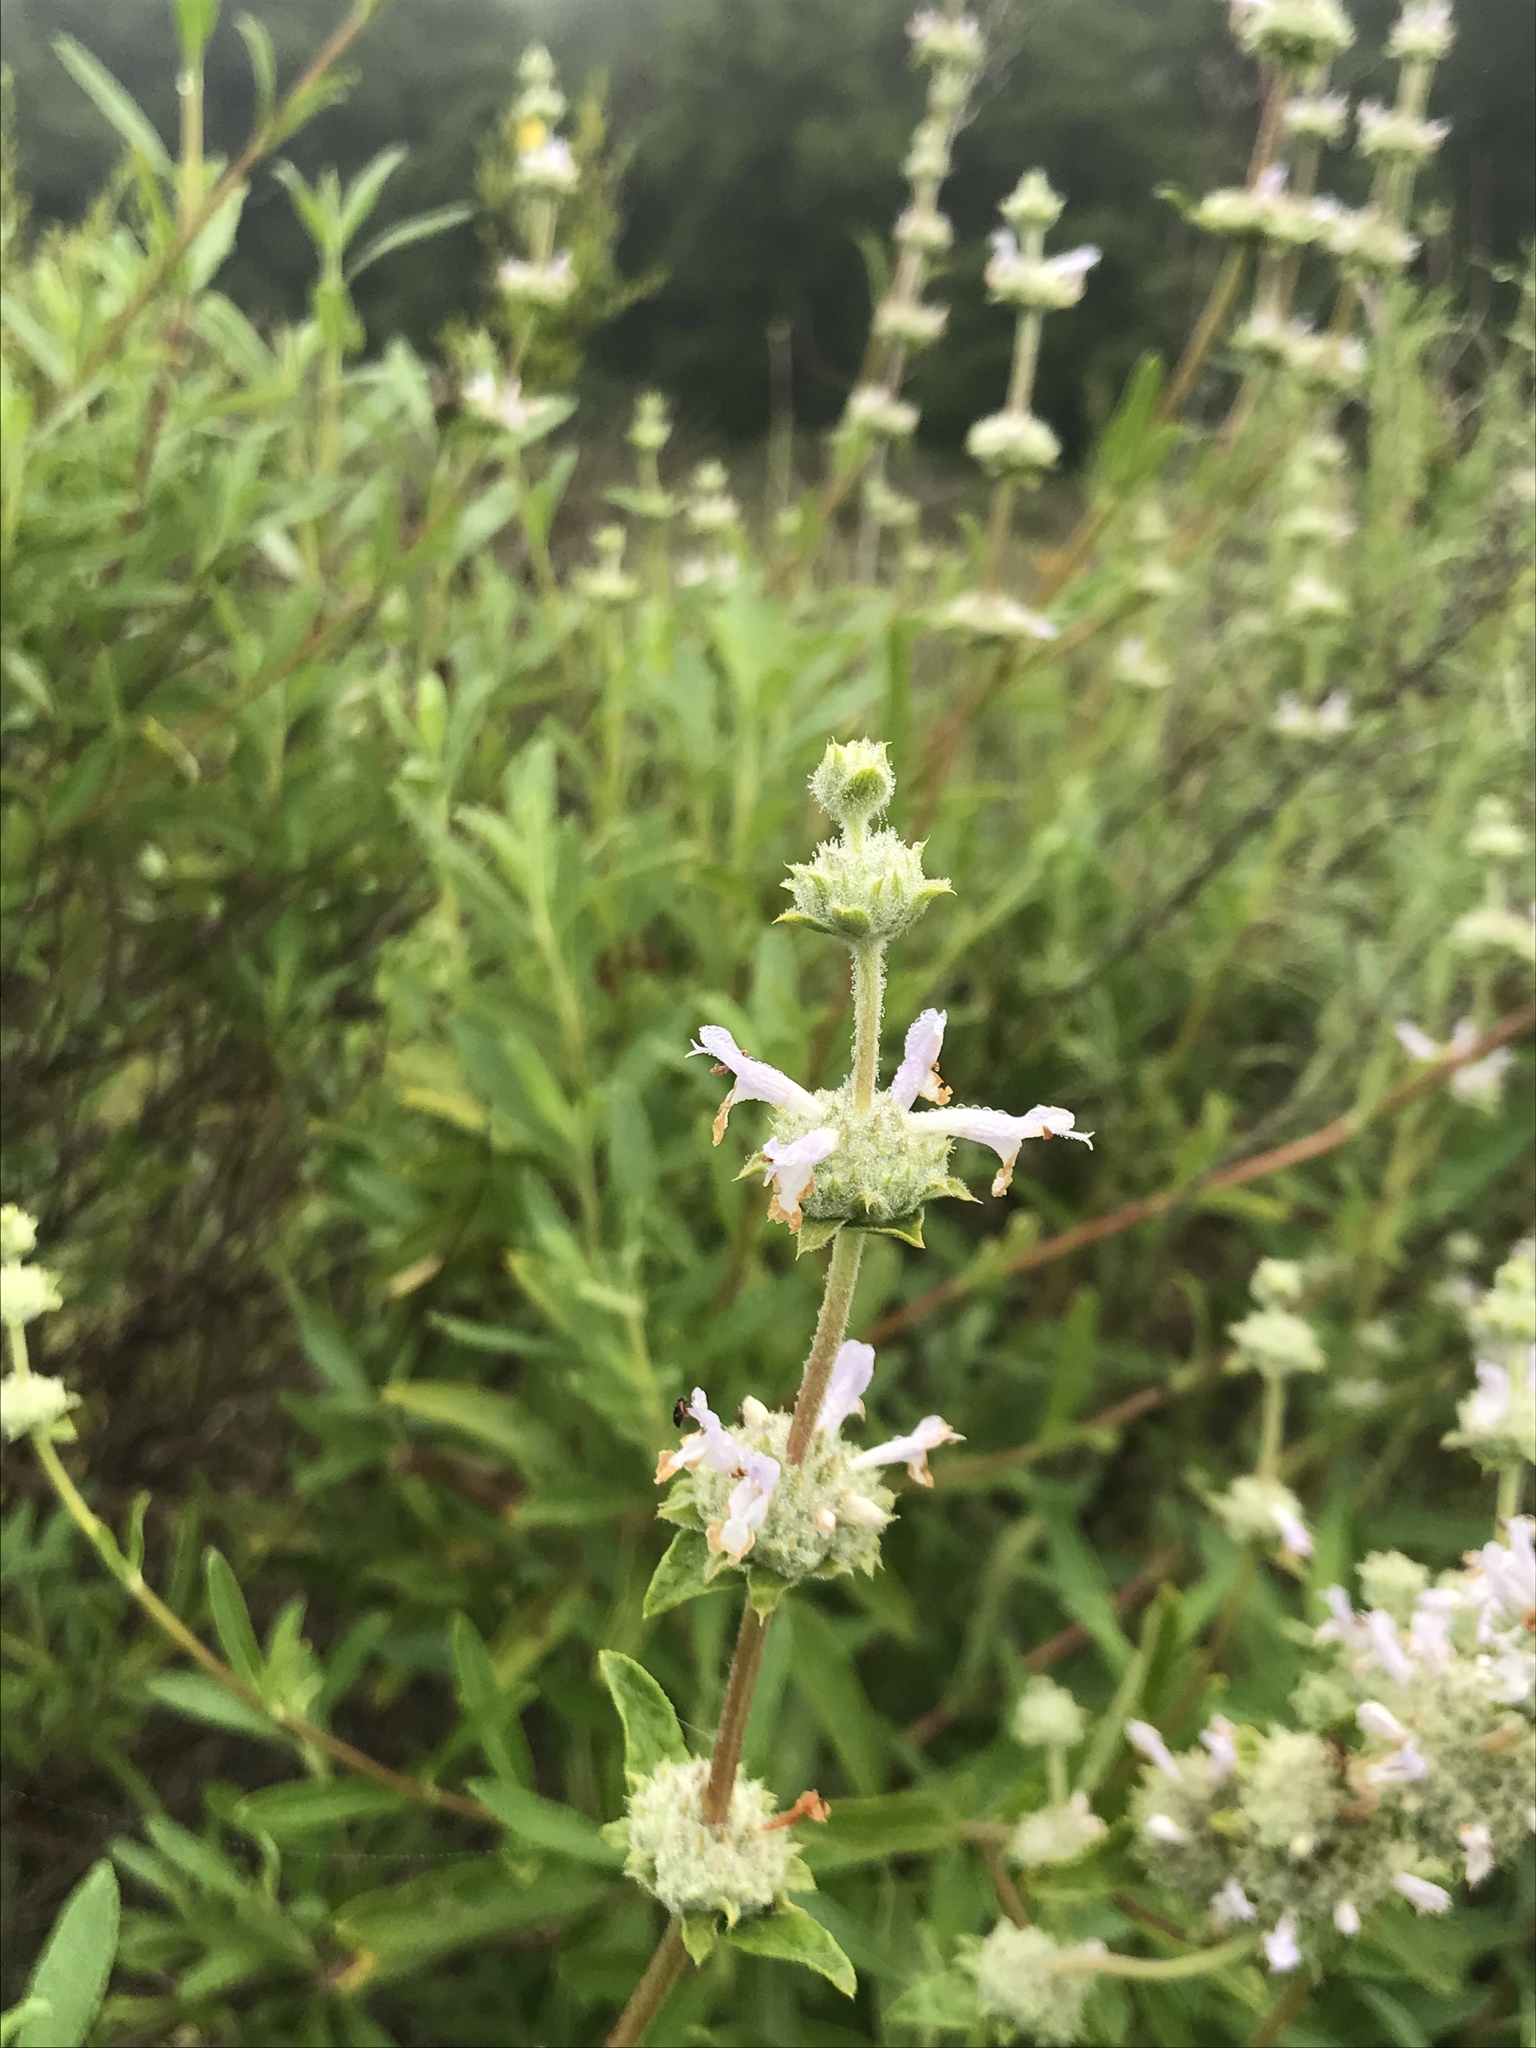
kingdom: Plantae
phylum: Tracheophyta
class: Magnoliopsida
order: Lamiales
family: Lamiaceae
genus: Salvia
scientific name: Salvia mellifera
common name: Black sage
